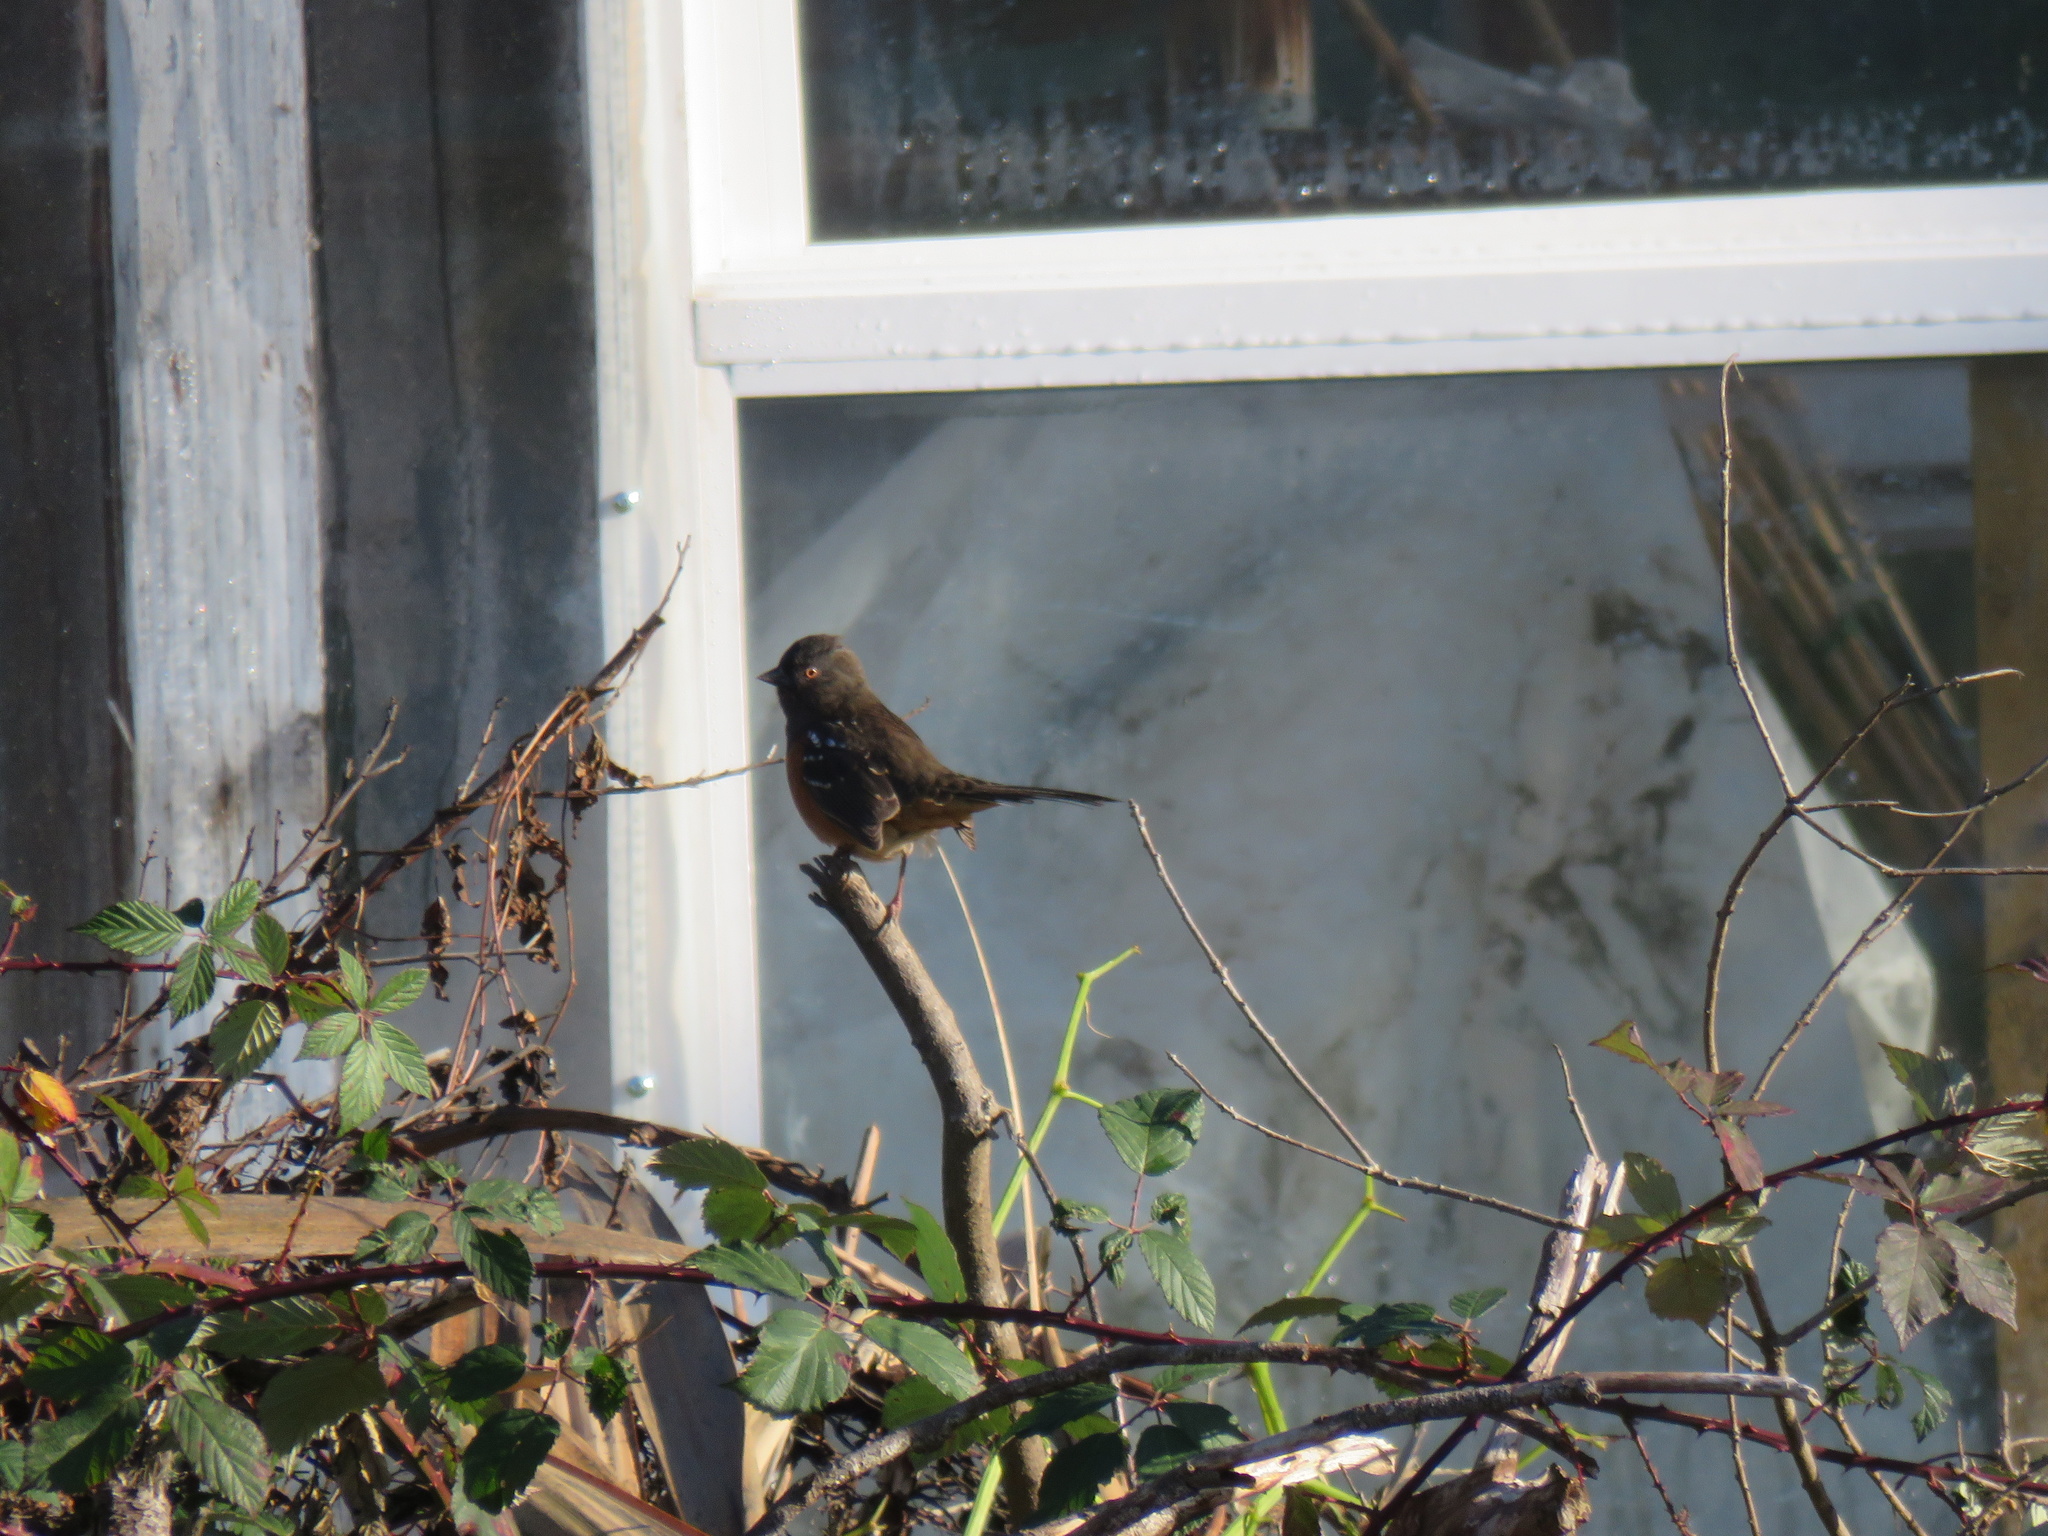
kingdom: Animalia
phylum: Chordata
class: Aves
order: Passeriformes
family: Passerellidae
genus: Pipilo
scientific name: Pipilo maculatus
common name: Spotted towhee
